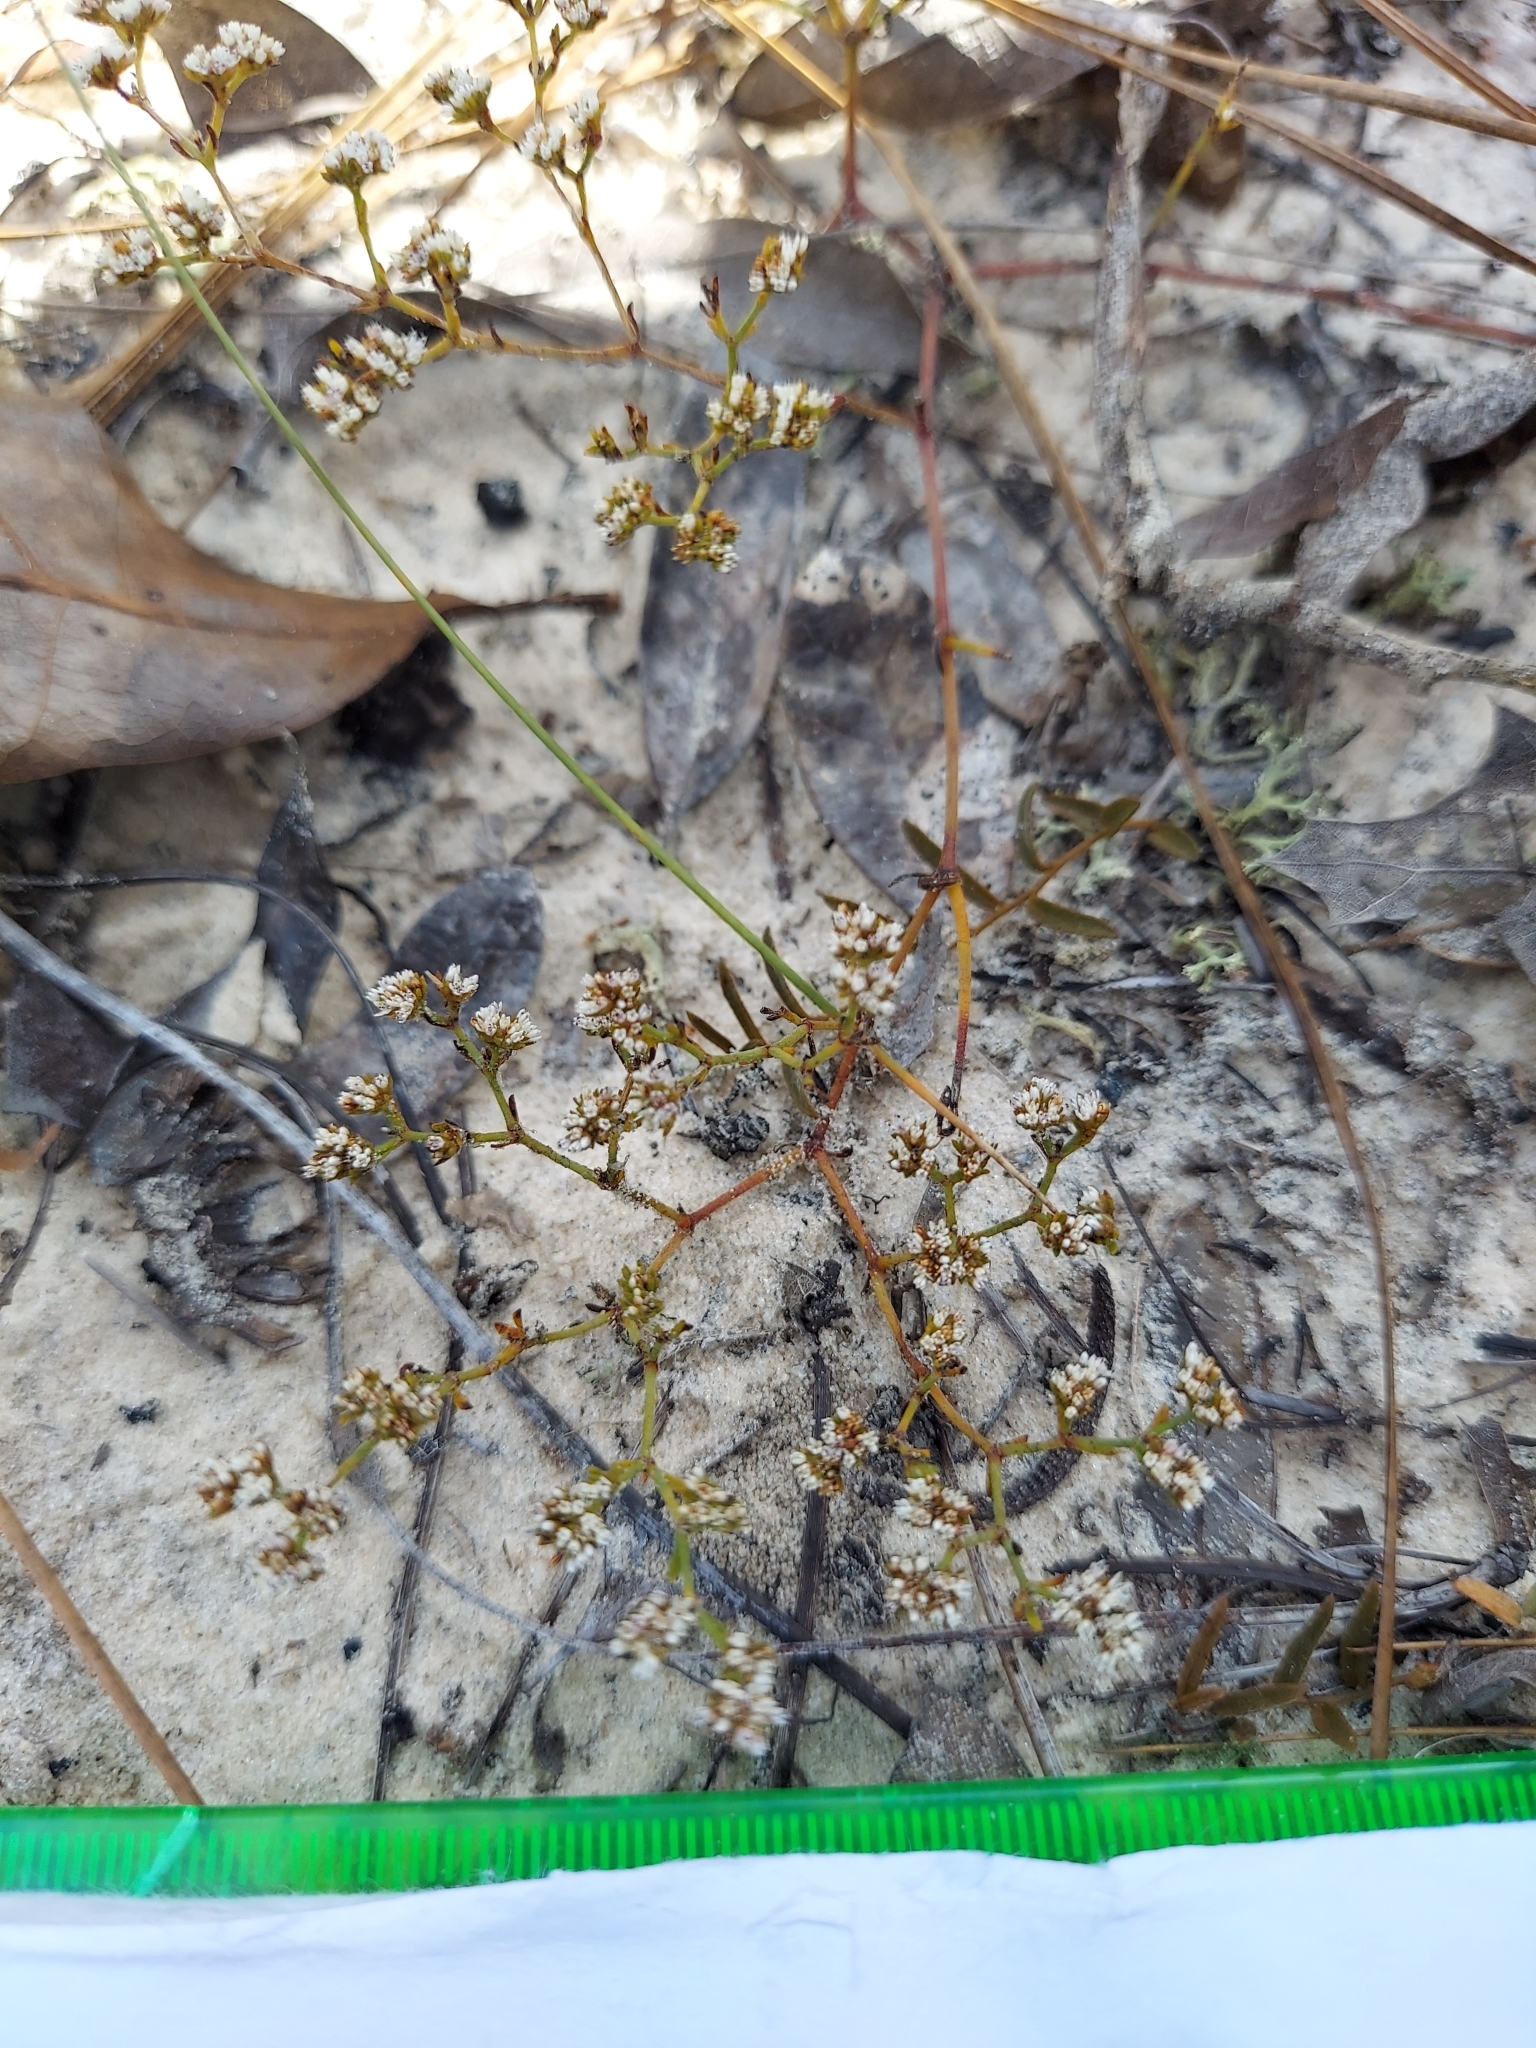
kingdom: Plantae
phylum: Tracheophyta
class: Magnoliopsida
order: Caryophyllales
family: Caryophyllaceae
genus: Paronychia
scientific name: Paronychia patula
